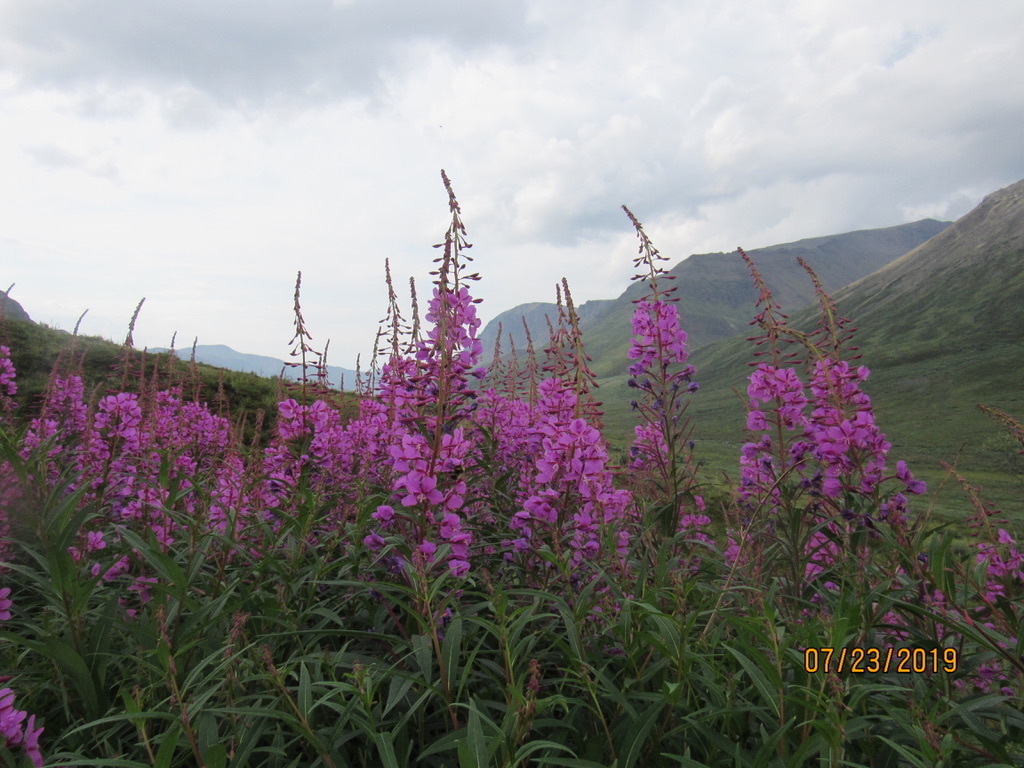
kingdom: Plantae
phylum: Tracheophyta
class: Magnoliopsida
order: Myrtales
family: Onagraceae
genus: Chamaenerion
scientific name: Chamaenerion angustifolium
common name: Fireweed
